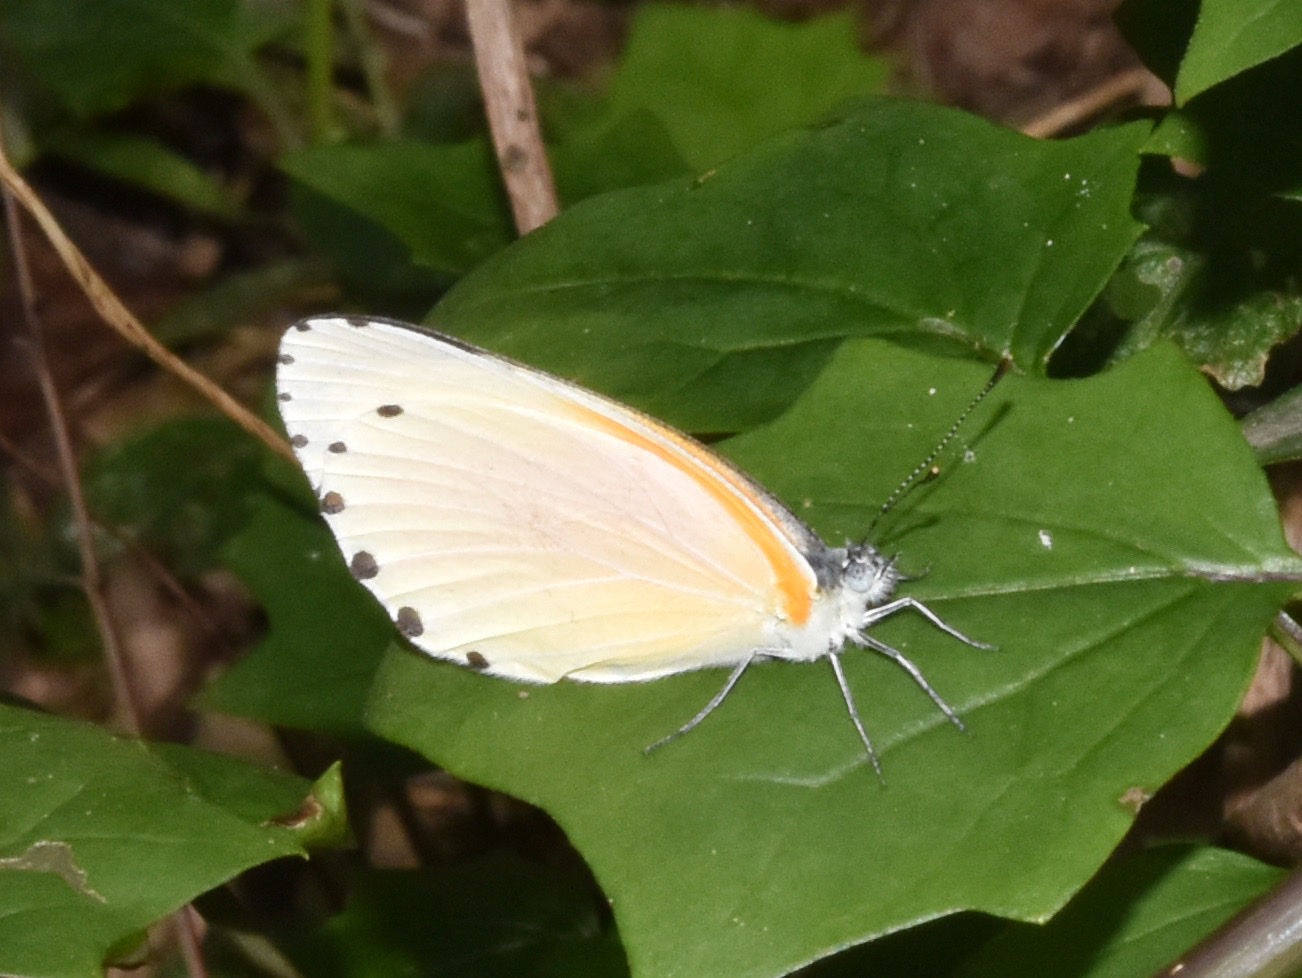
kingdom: Animalia
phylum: Arthropoda
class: Insecta
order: Lepidoptera
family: Pieridae
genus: Mylothris
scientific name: Mylothris rueppellii
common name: Twin dotted border
